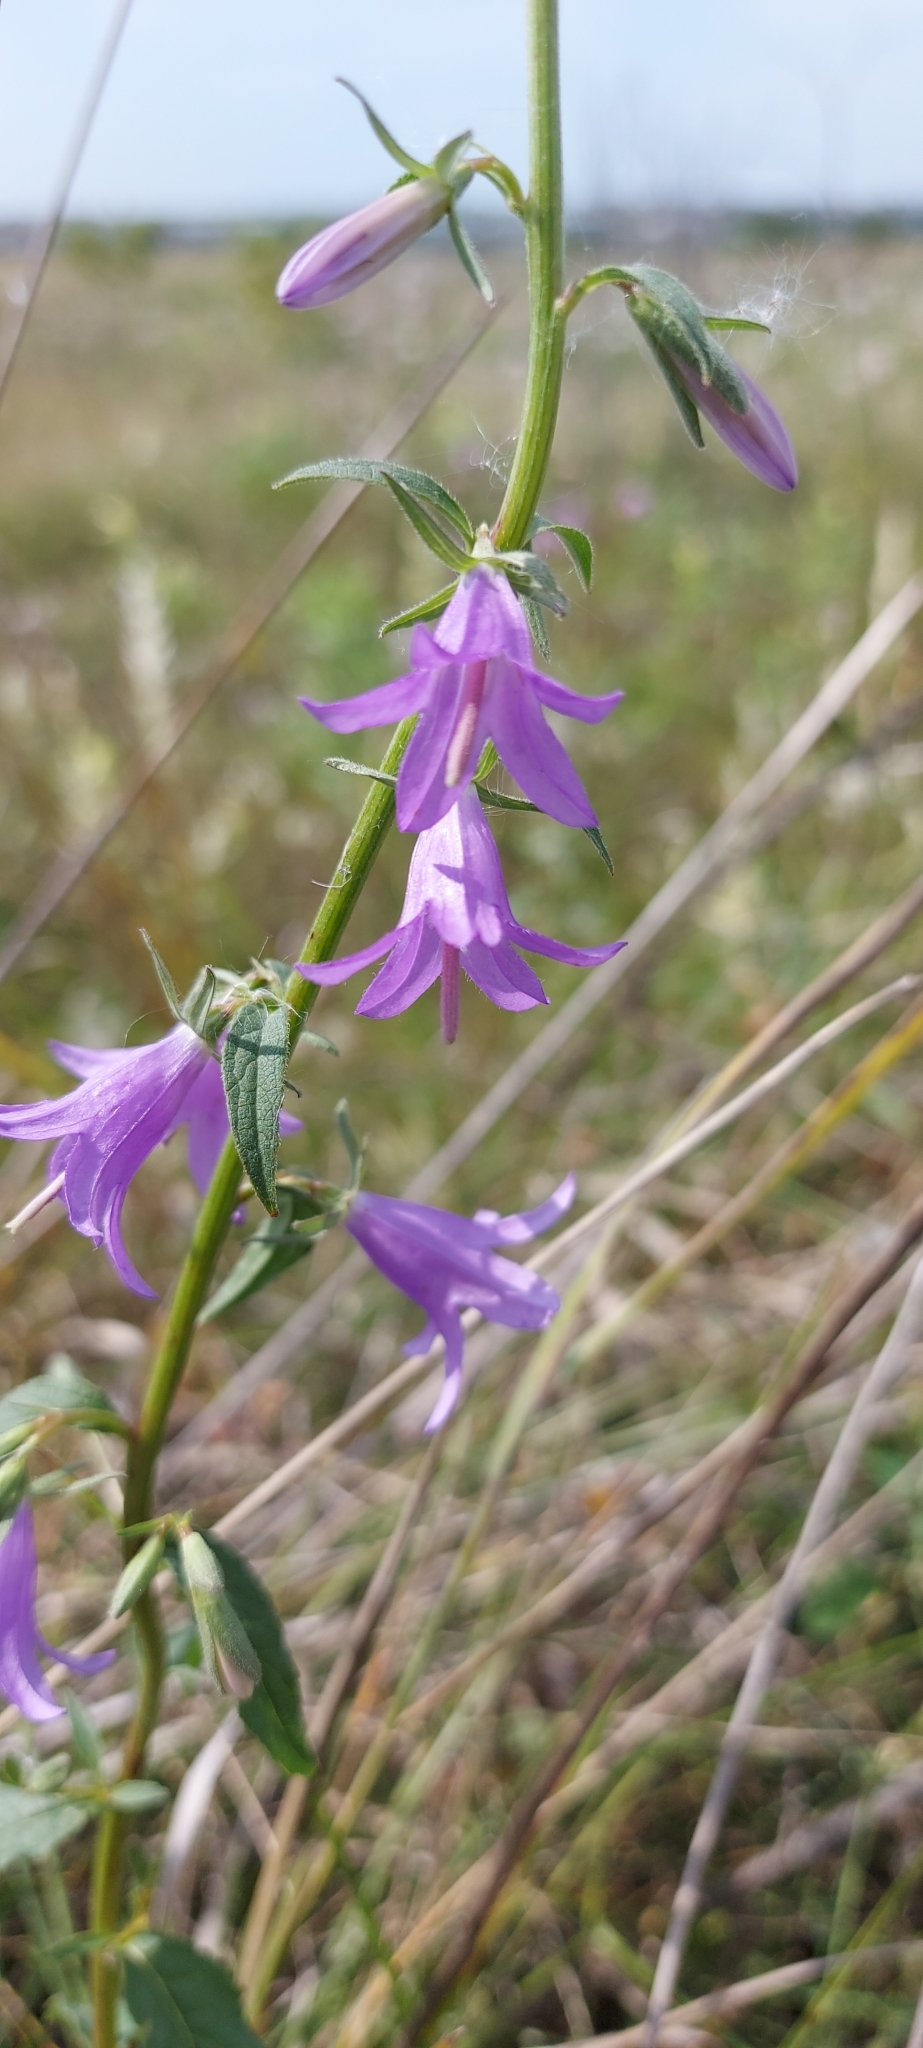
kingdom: Plantae
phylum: Tracheophyta
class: Magnoliopsida
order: Asterales
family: Campanulaceae
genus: Campanula
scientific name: Campanula rapunculoides
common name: Creeping bellflower
